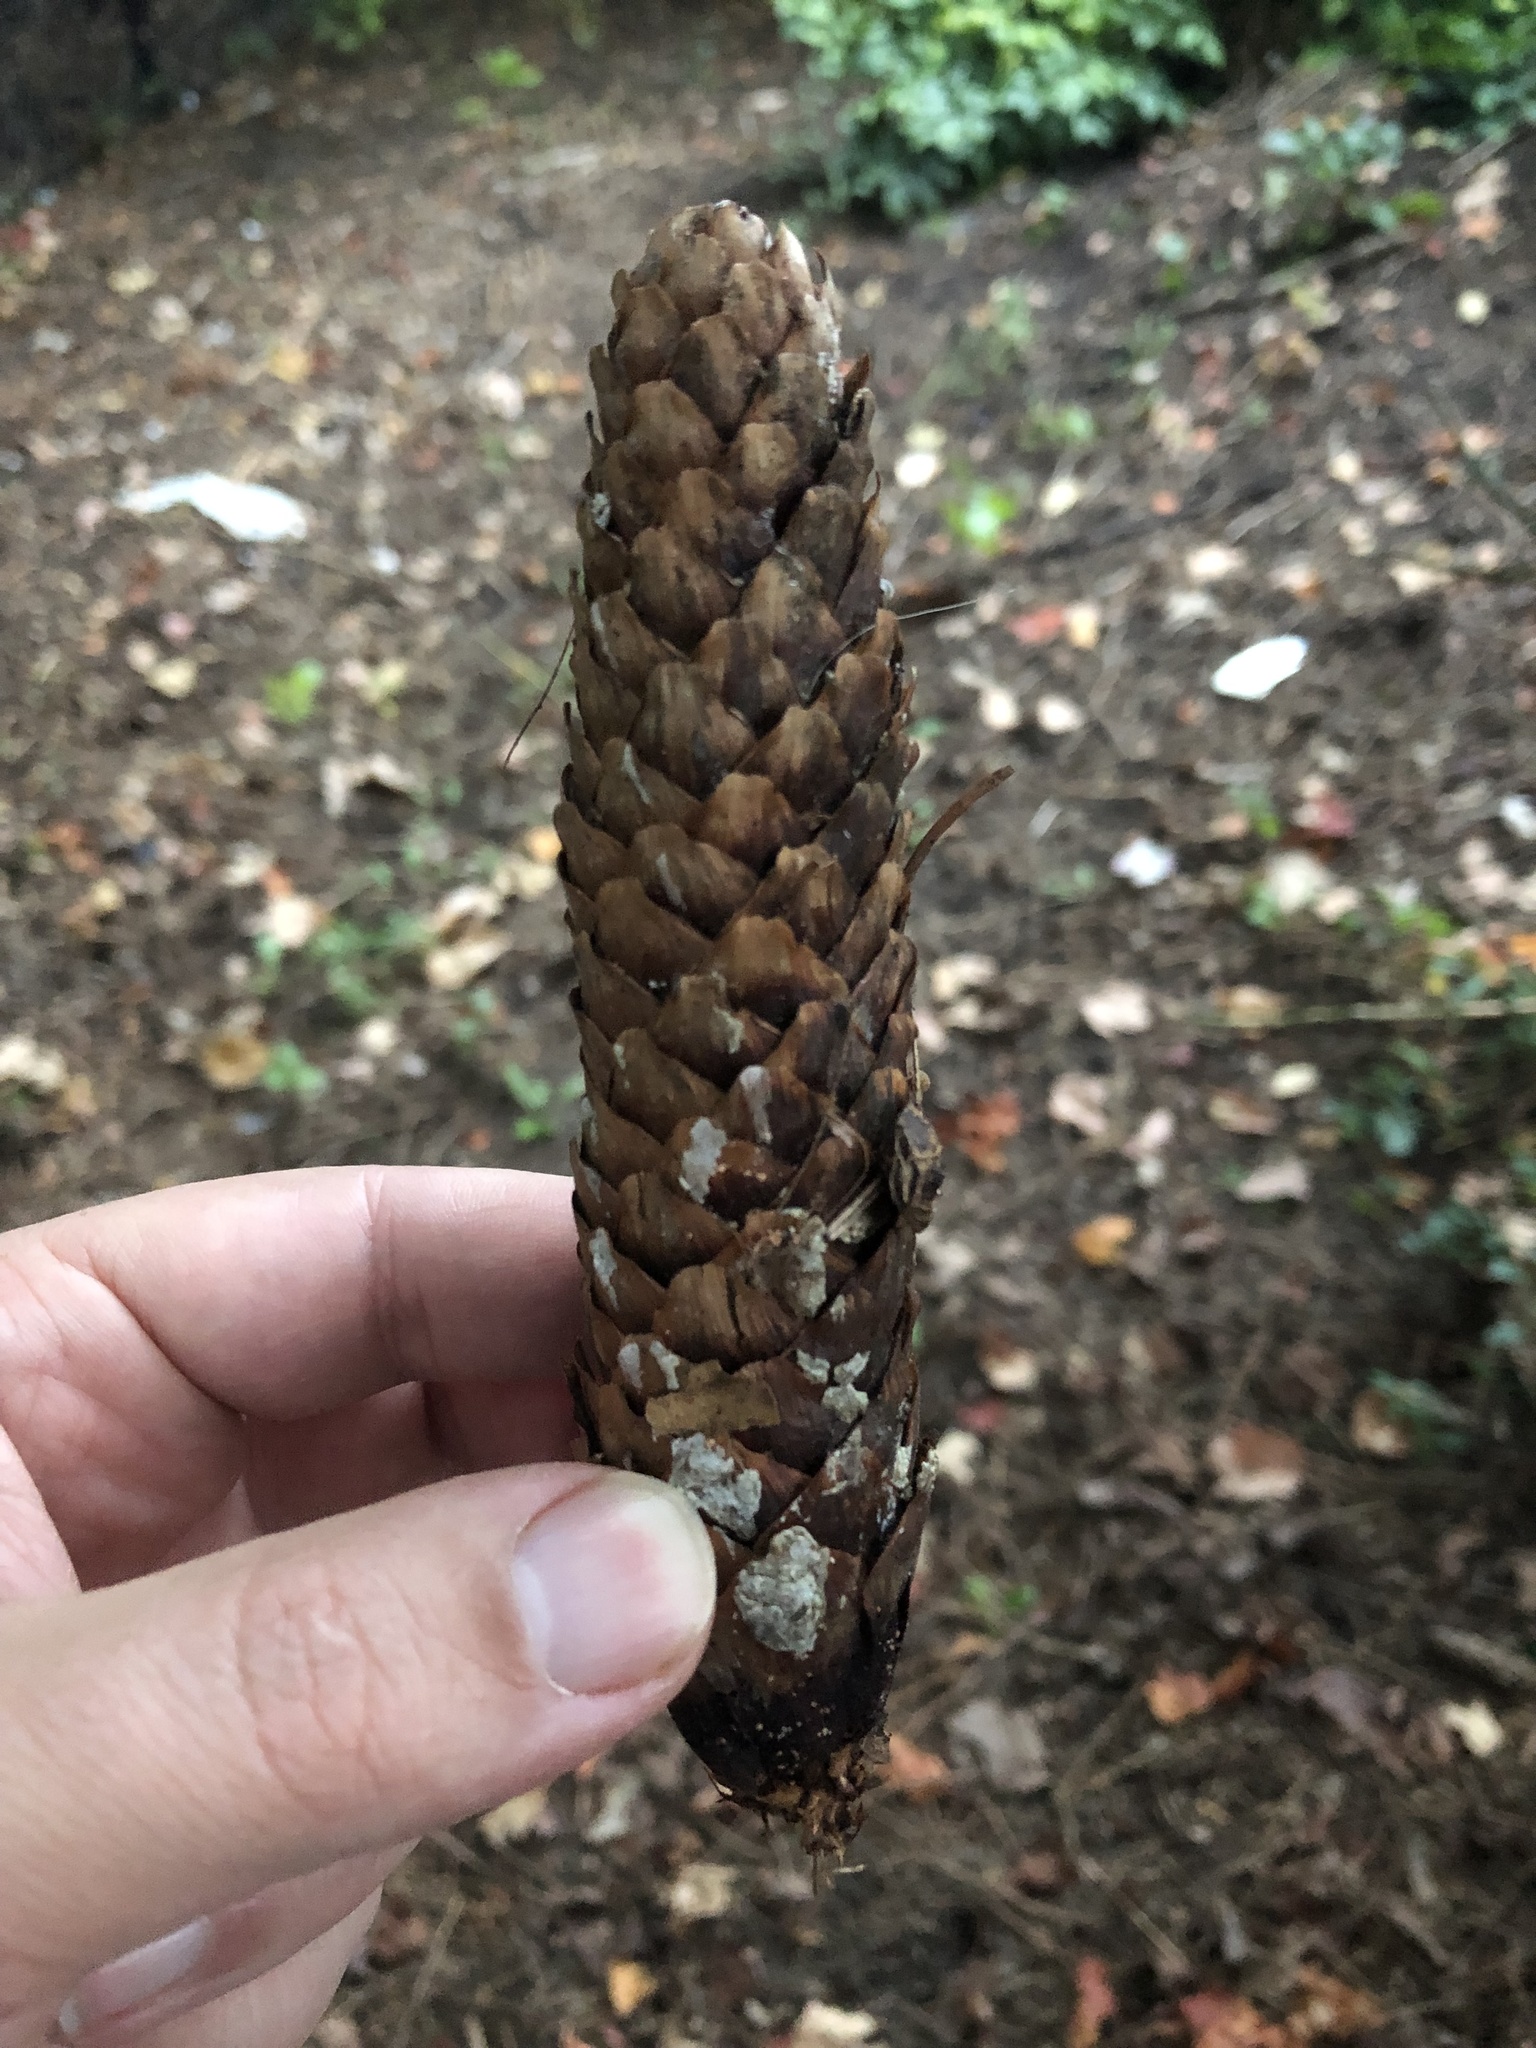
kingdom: Plantae
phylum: Tracheophyta
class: Pinopsida
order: Pinales
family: Pinaceae
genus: Picea
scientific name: Picea abies
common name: Norway spruce
